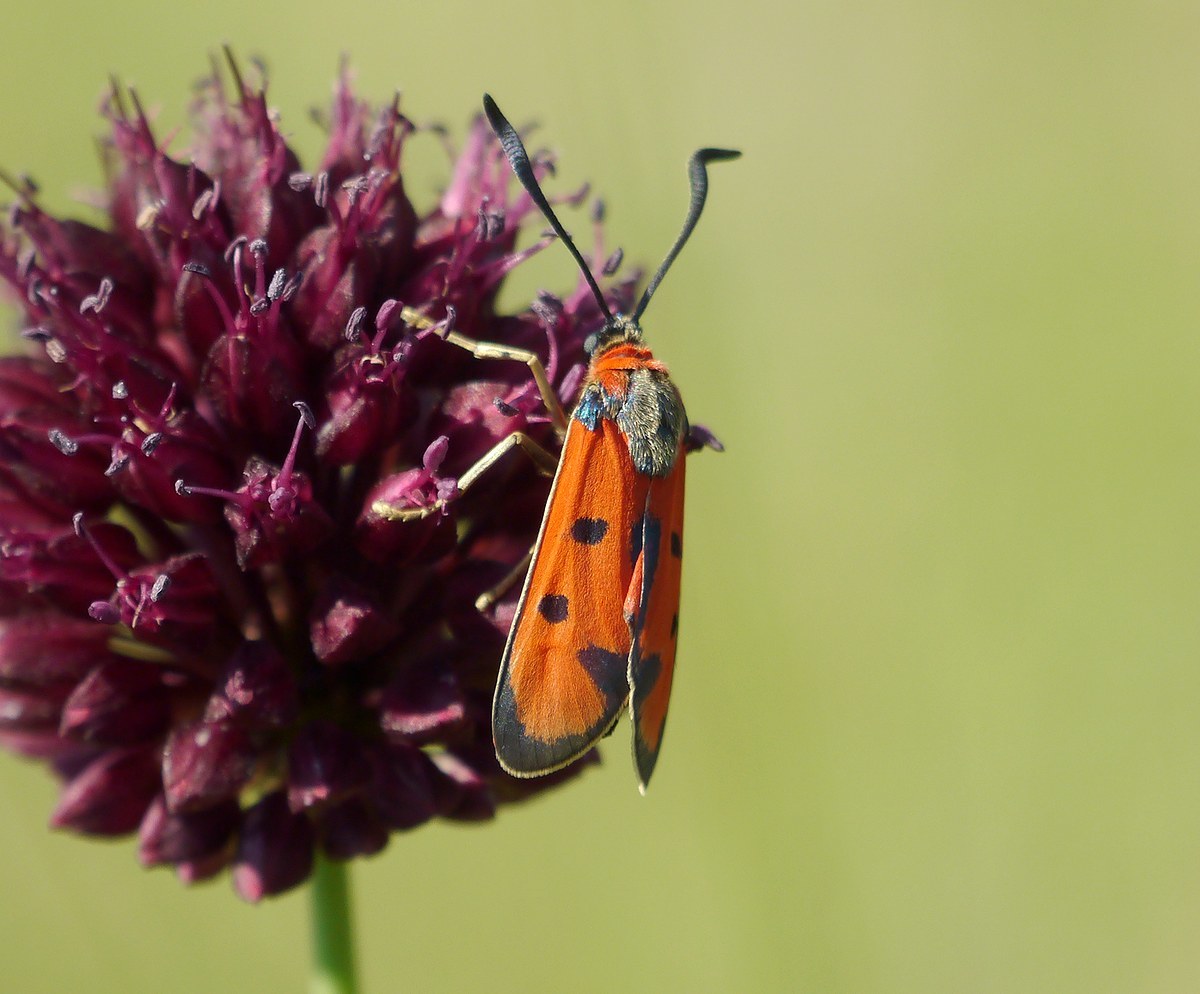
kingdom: Animalia
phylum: Arthropoda
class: Insecta
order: Lepidoptera
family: Zygaenidae
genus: Zygaena
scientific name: Zygaena laeta
